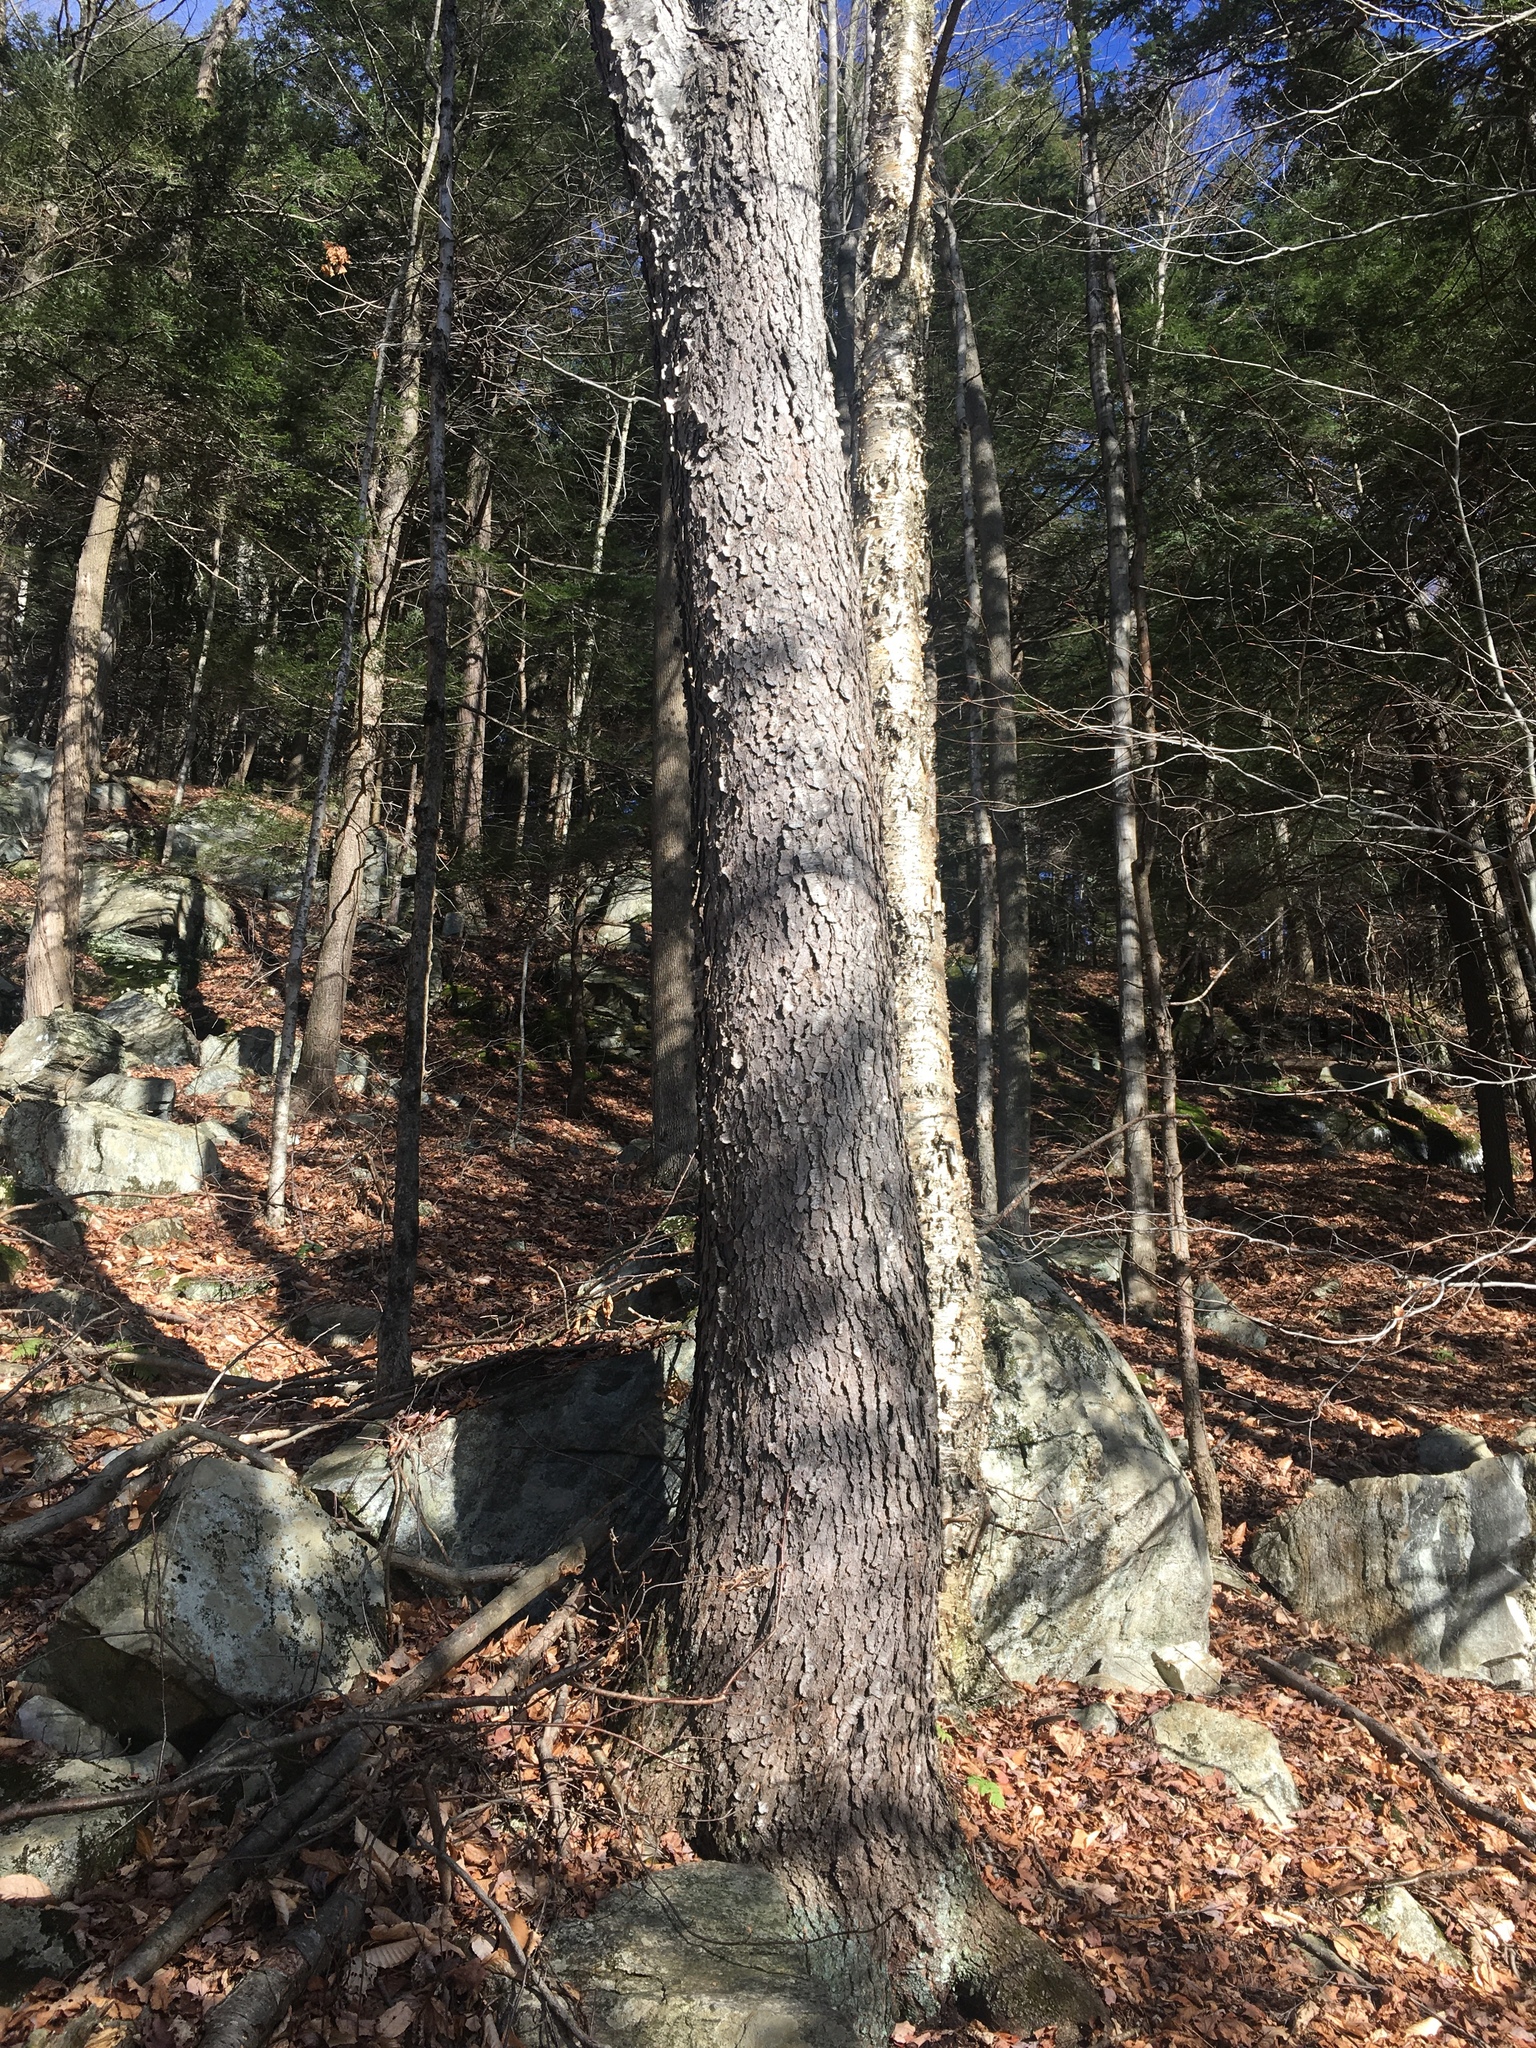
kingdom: Plantae
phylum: Tracheophyta
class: Magnoliopsida
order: Rosales
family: Rosaceae
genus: Prunus
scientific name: Prunus serotina
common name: Black cherry
